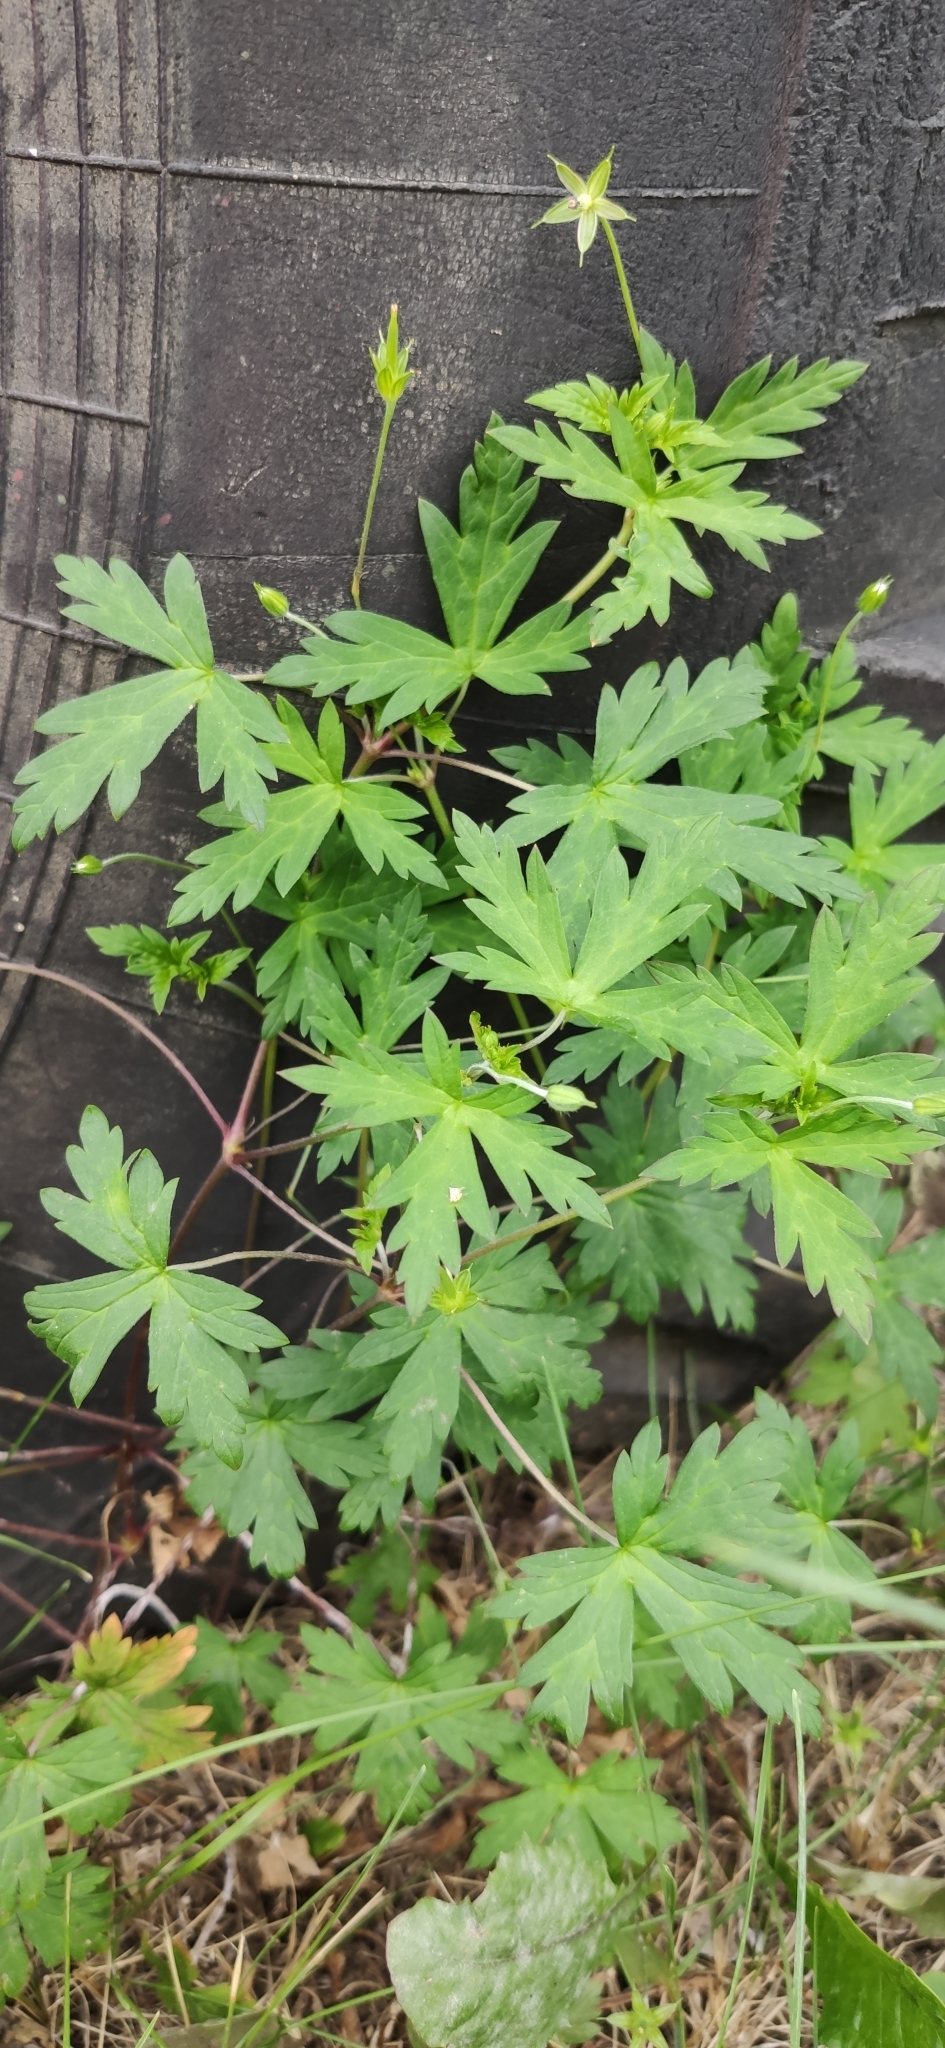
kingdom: Plantae
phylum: Tracheophyta
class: Magnoliopsida
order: Geraniales
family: Geraniaceae
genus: Geranium
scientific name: Geranium sibiricum
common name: Siberian crane's-bill
